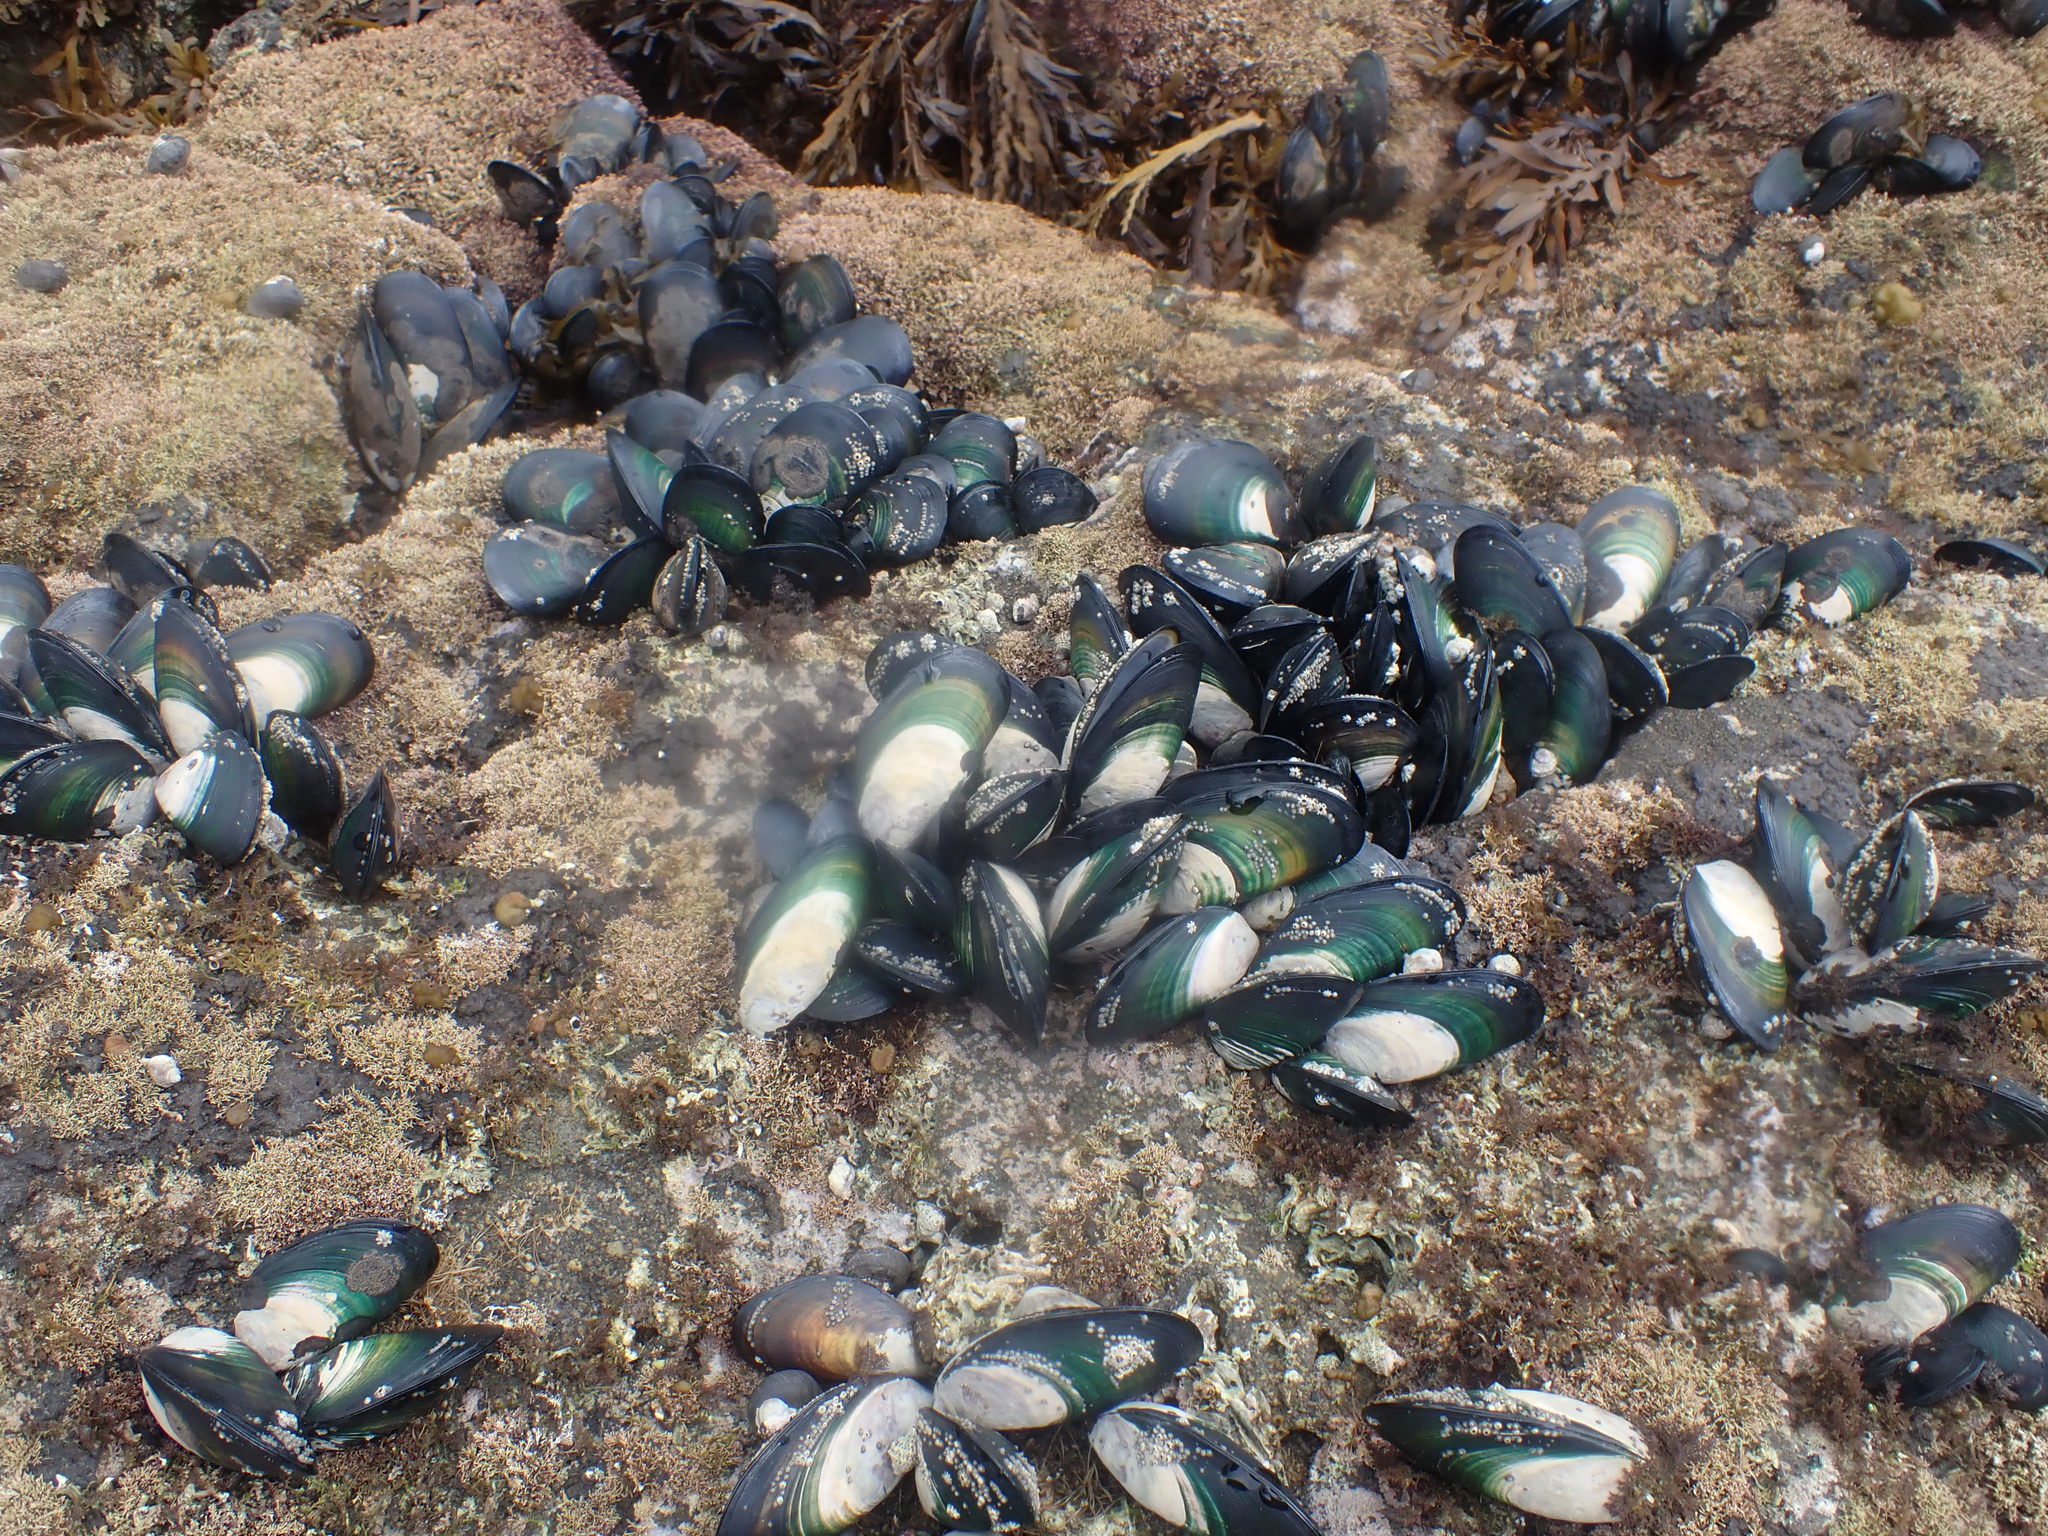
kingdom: Animalia
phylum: Mollusca
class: Bivalvia
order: Mytilida
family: Mytilidae
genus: Perna
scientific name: Perna canaliculus
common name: New zealand greenshelltm
